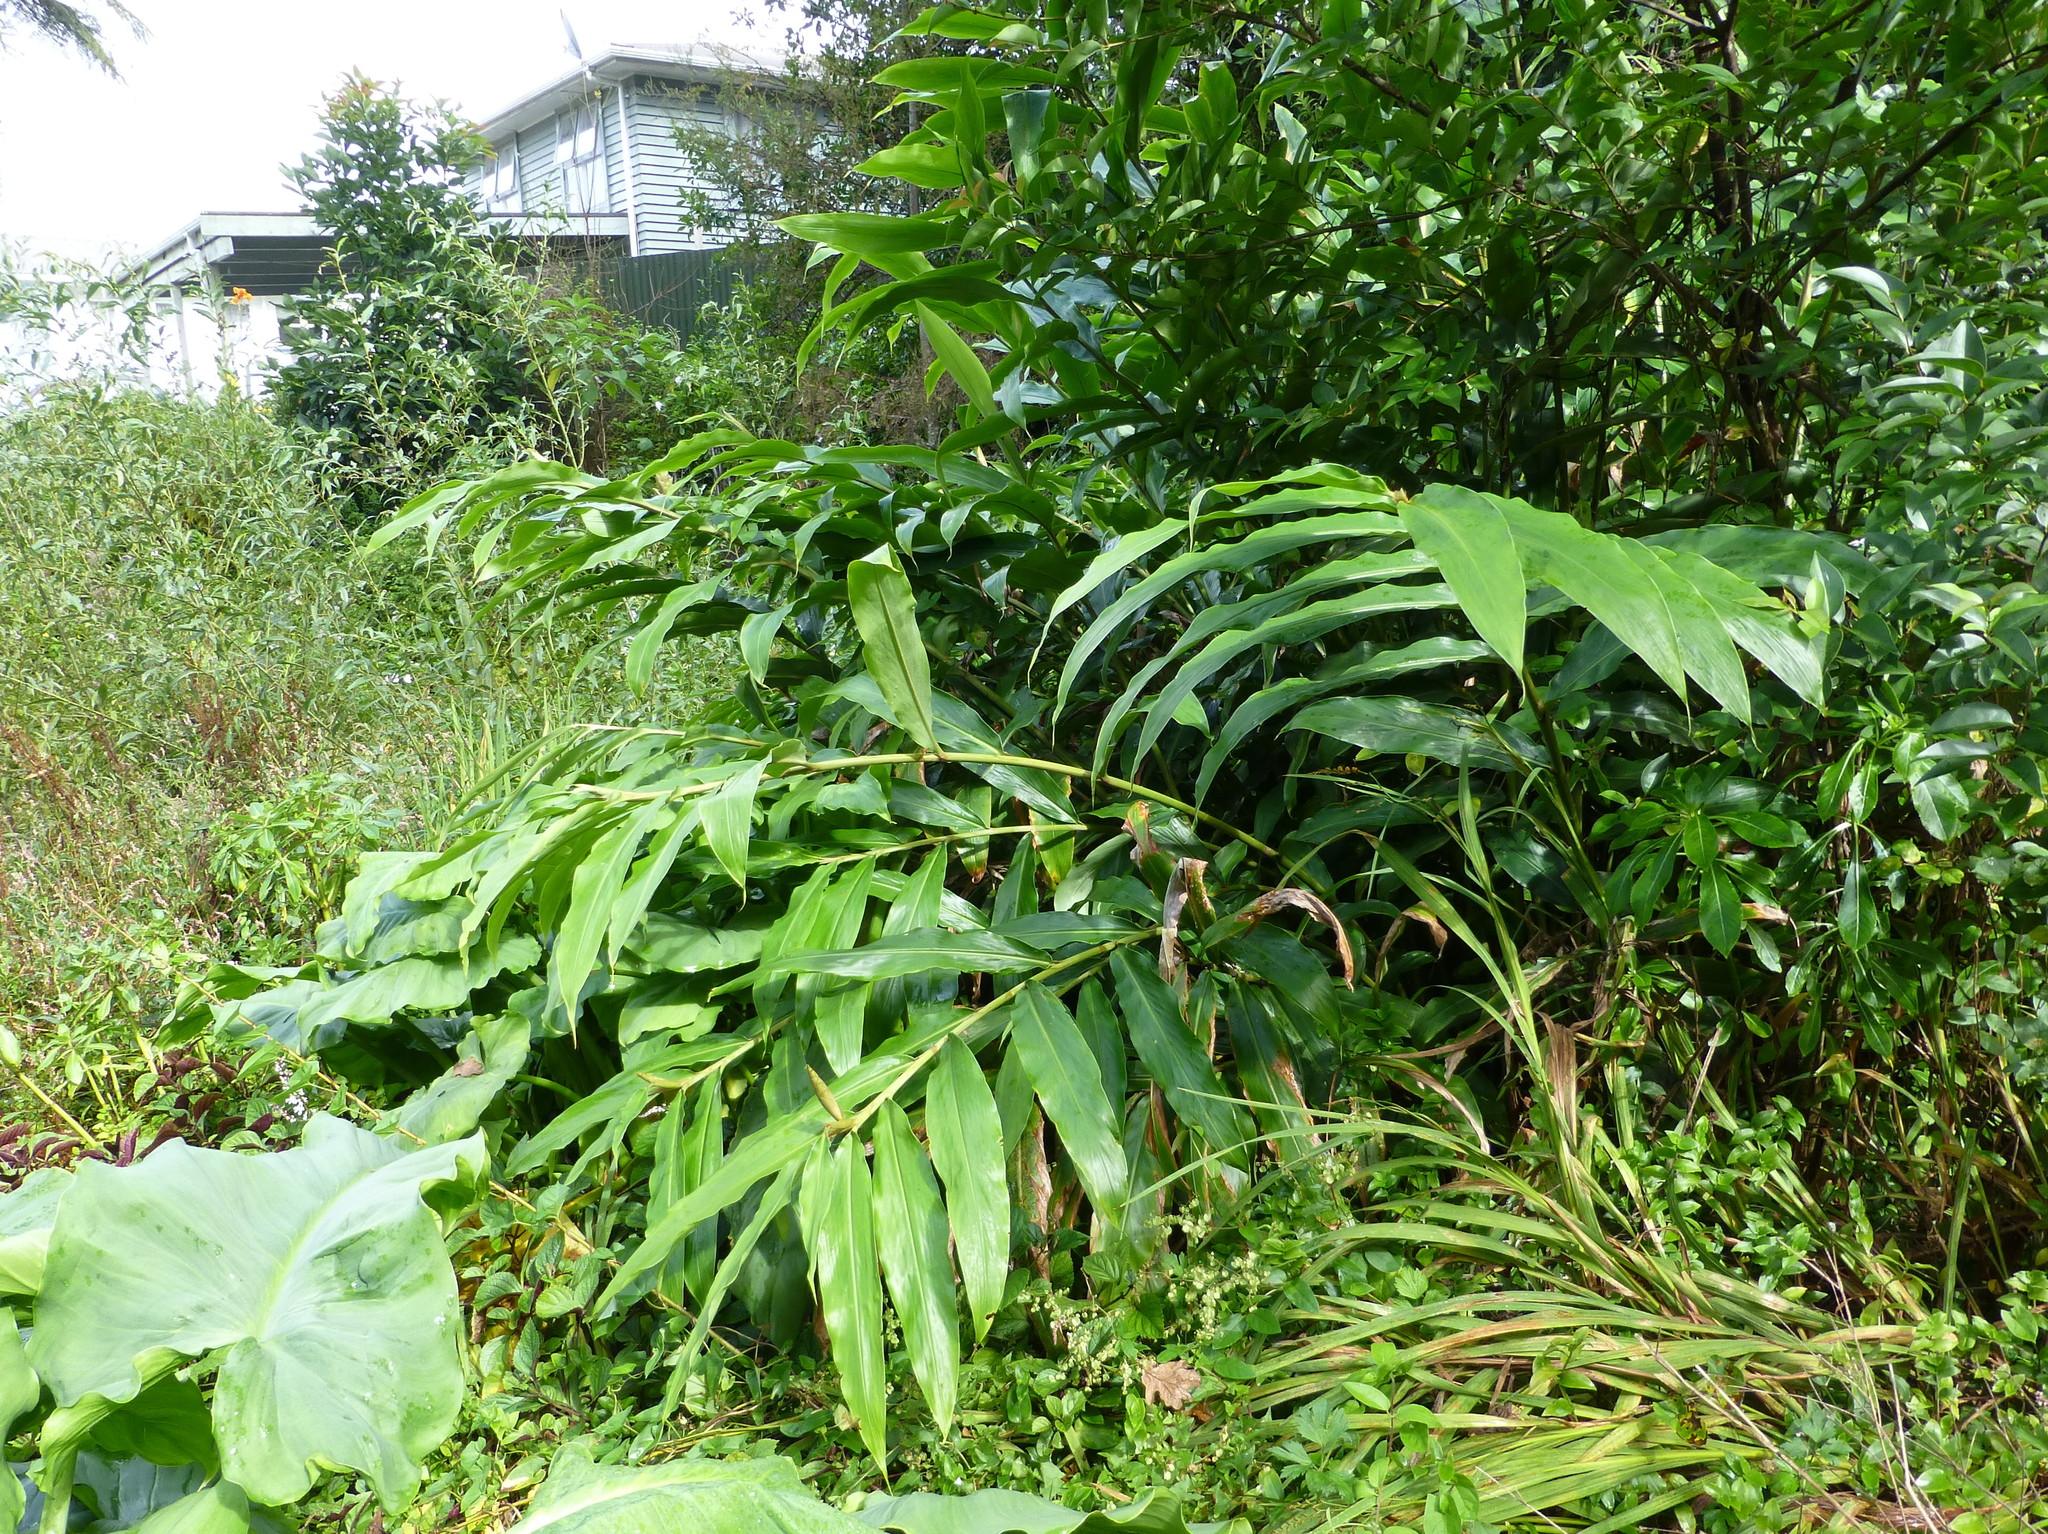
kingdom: Plantae
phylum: Tracheophyta
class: Liliopsida
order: Zingiberales
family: Zingiberaceae
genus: Hedychium
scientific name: Hedychium gardnerianum
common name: Himalayan ginger
